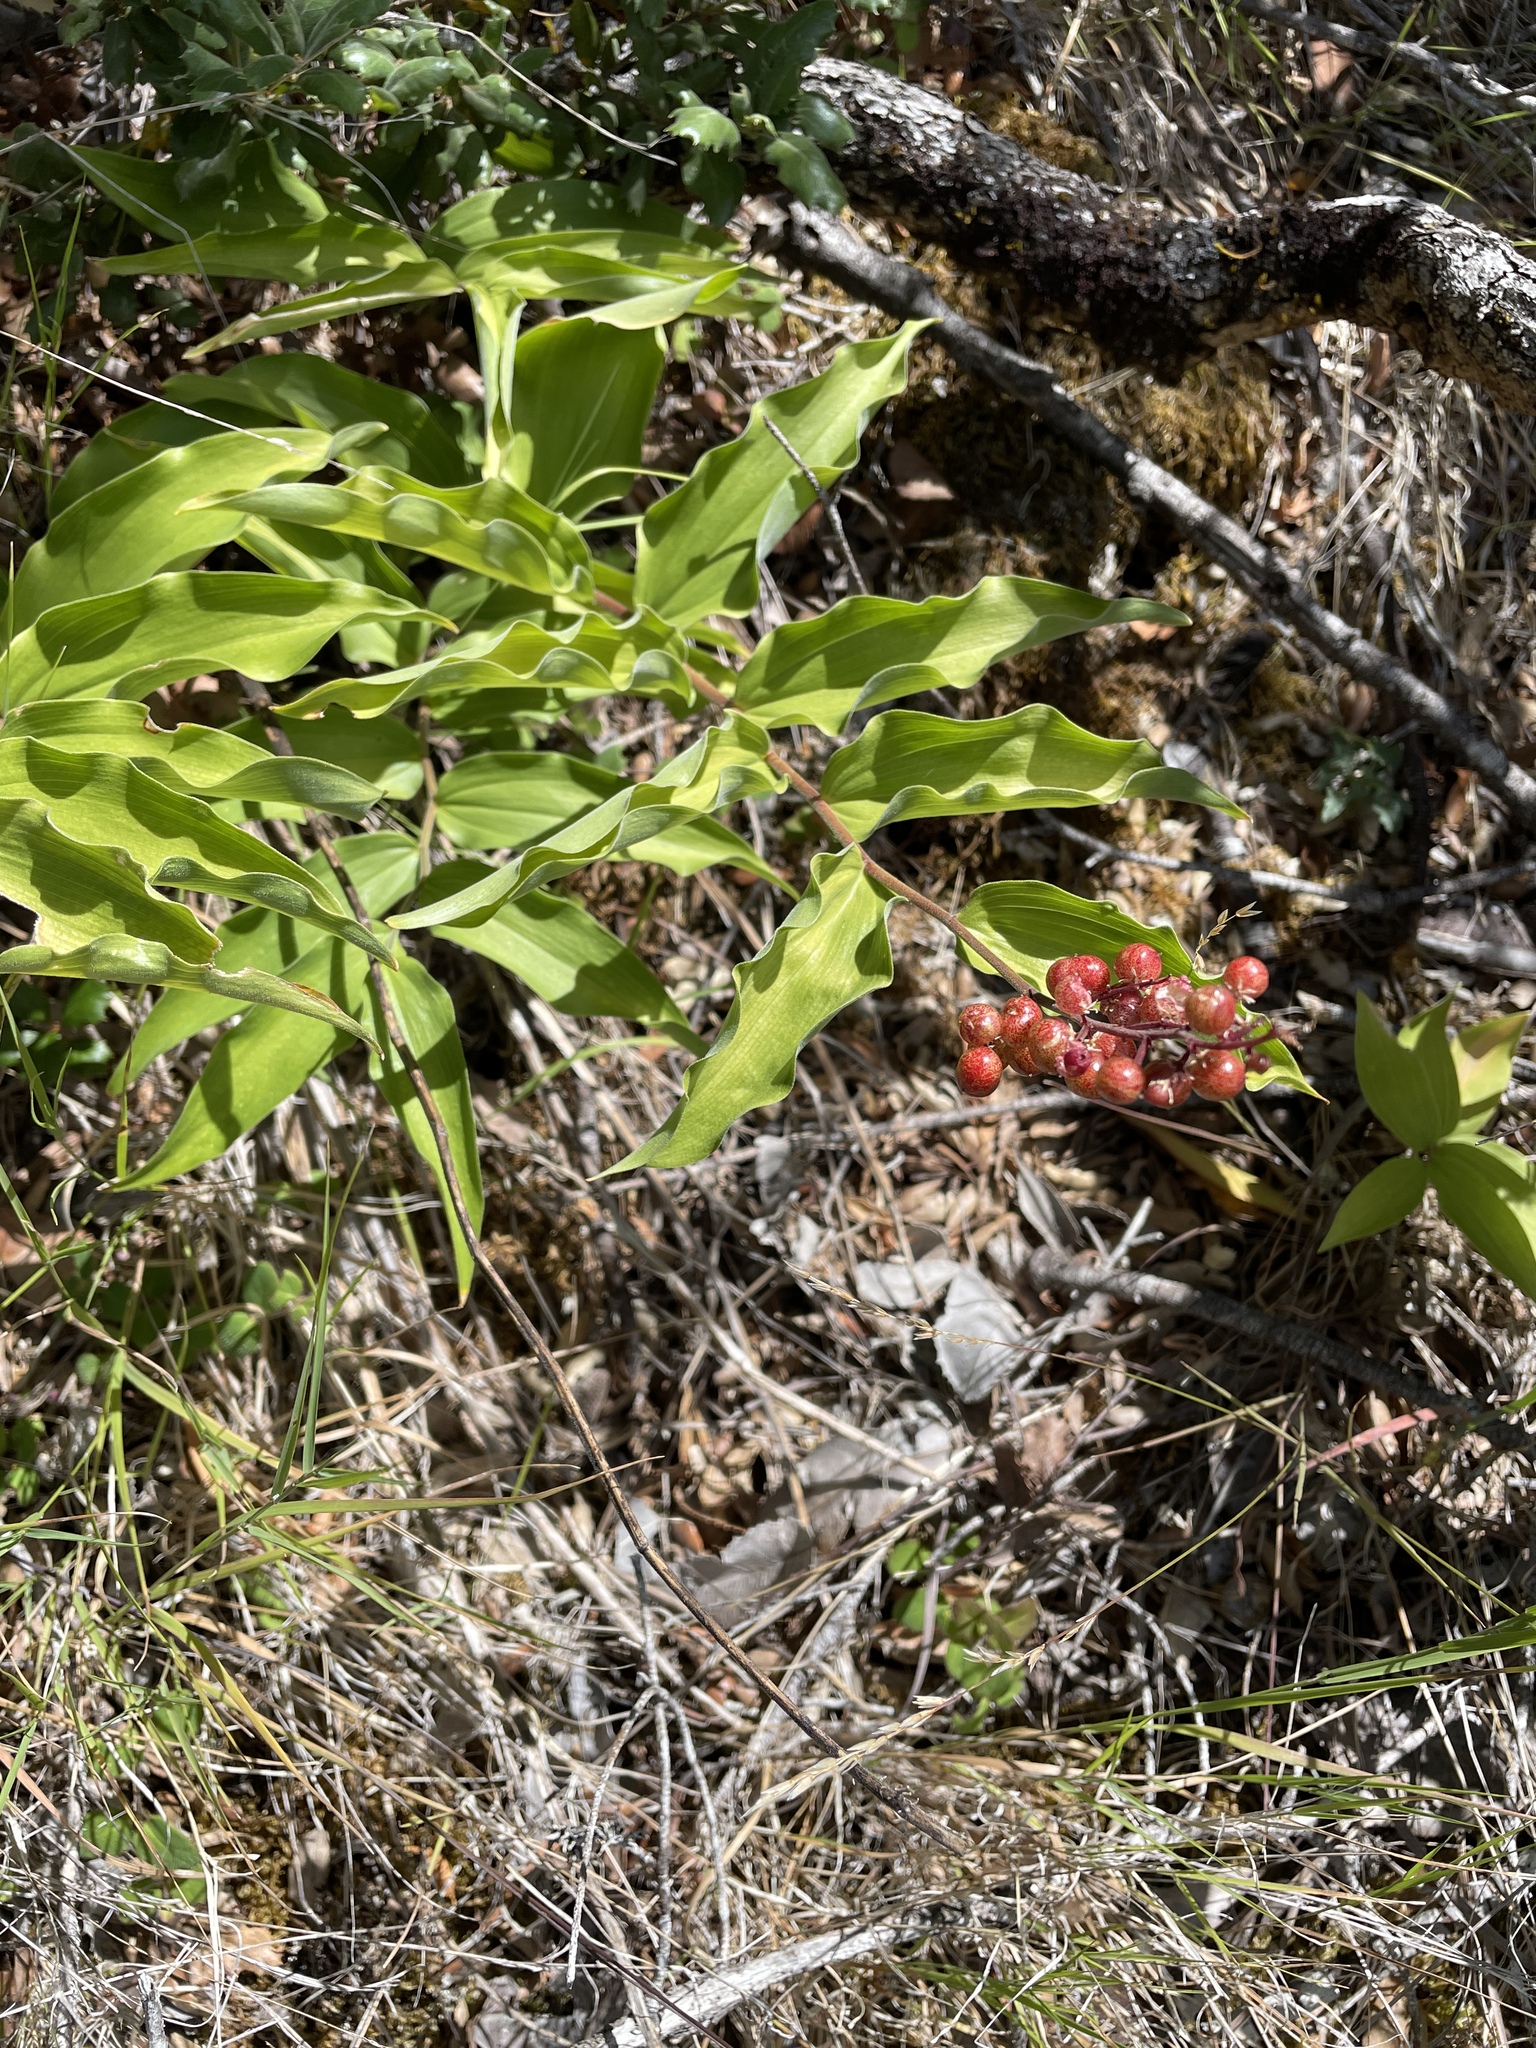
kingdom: Plantae
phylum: Tracheophyta
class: Liliopsida
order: Asparagales
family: Asparagaceae
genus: Maianthemum
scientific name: Maianthemum racemosum
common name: False spikenard
